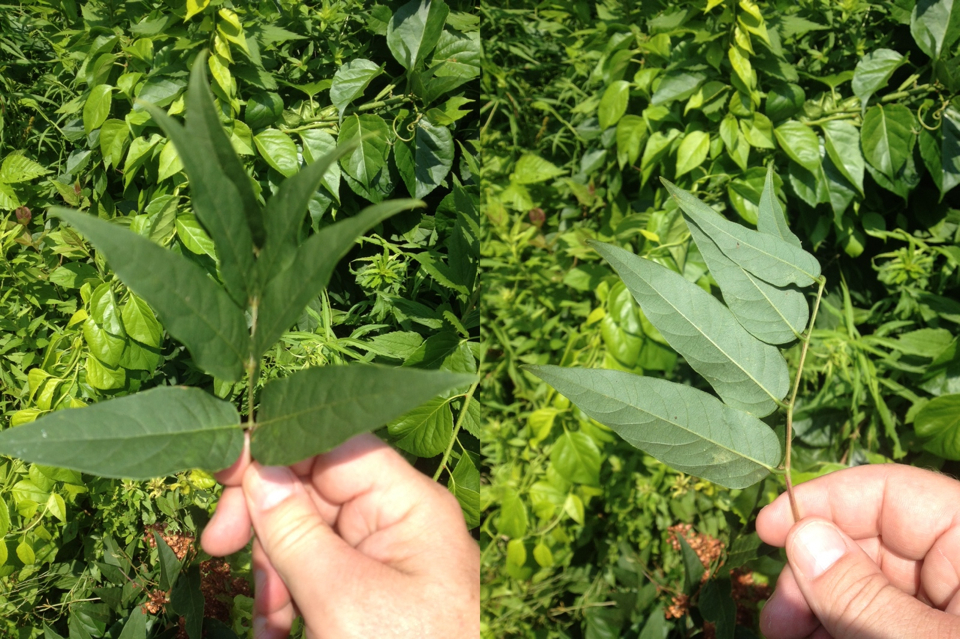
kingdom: Plantae
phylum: Tracheophyta
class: Magnoliopsida
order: Fabales
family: Fabaceae
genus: Apios
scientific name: Apios americana
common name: American potato-bean
